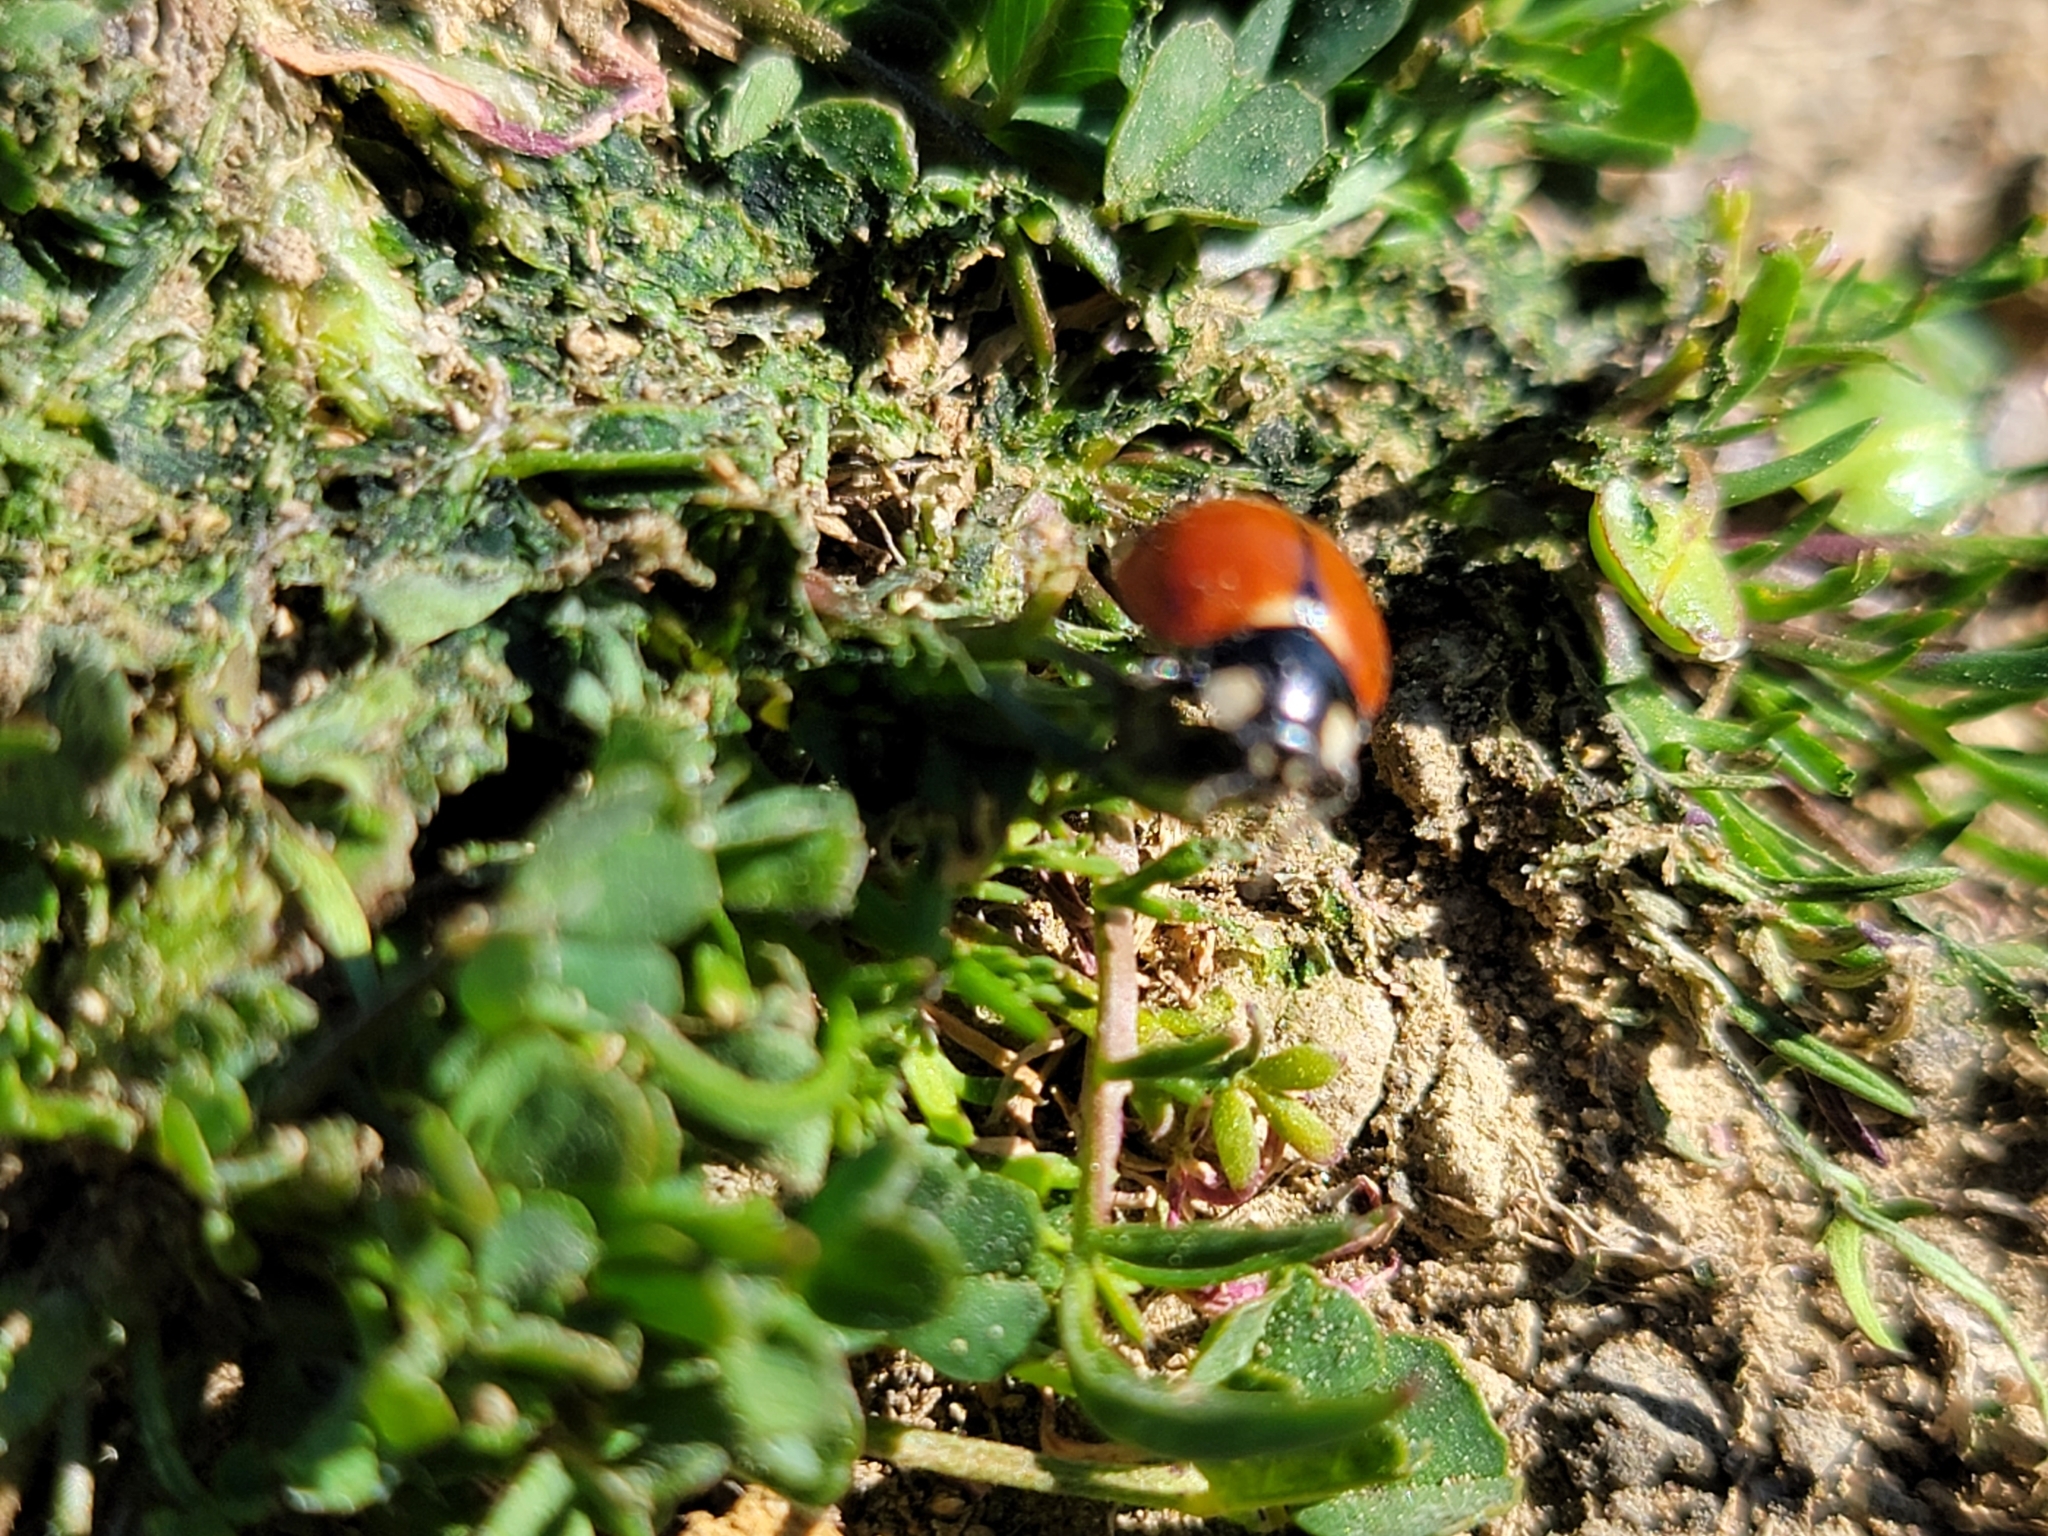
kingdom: Animalia
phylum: Arthropoda
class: Insecta
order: Coleoptera
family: Coccinellidae
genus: Coccinella
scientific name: Coccinella californica
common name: Lady beetle
